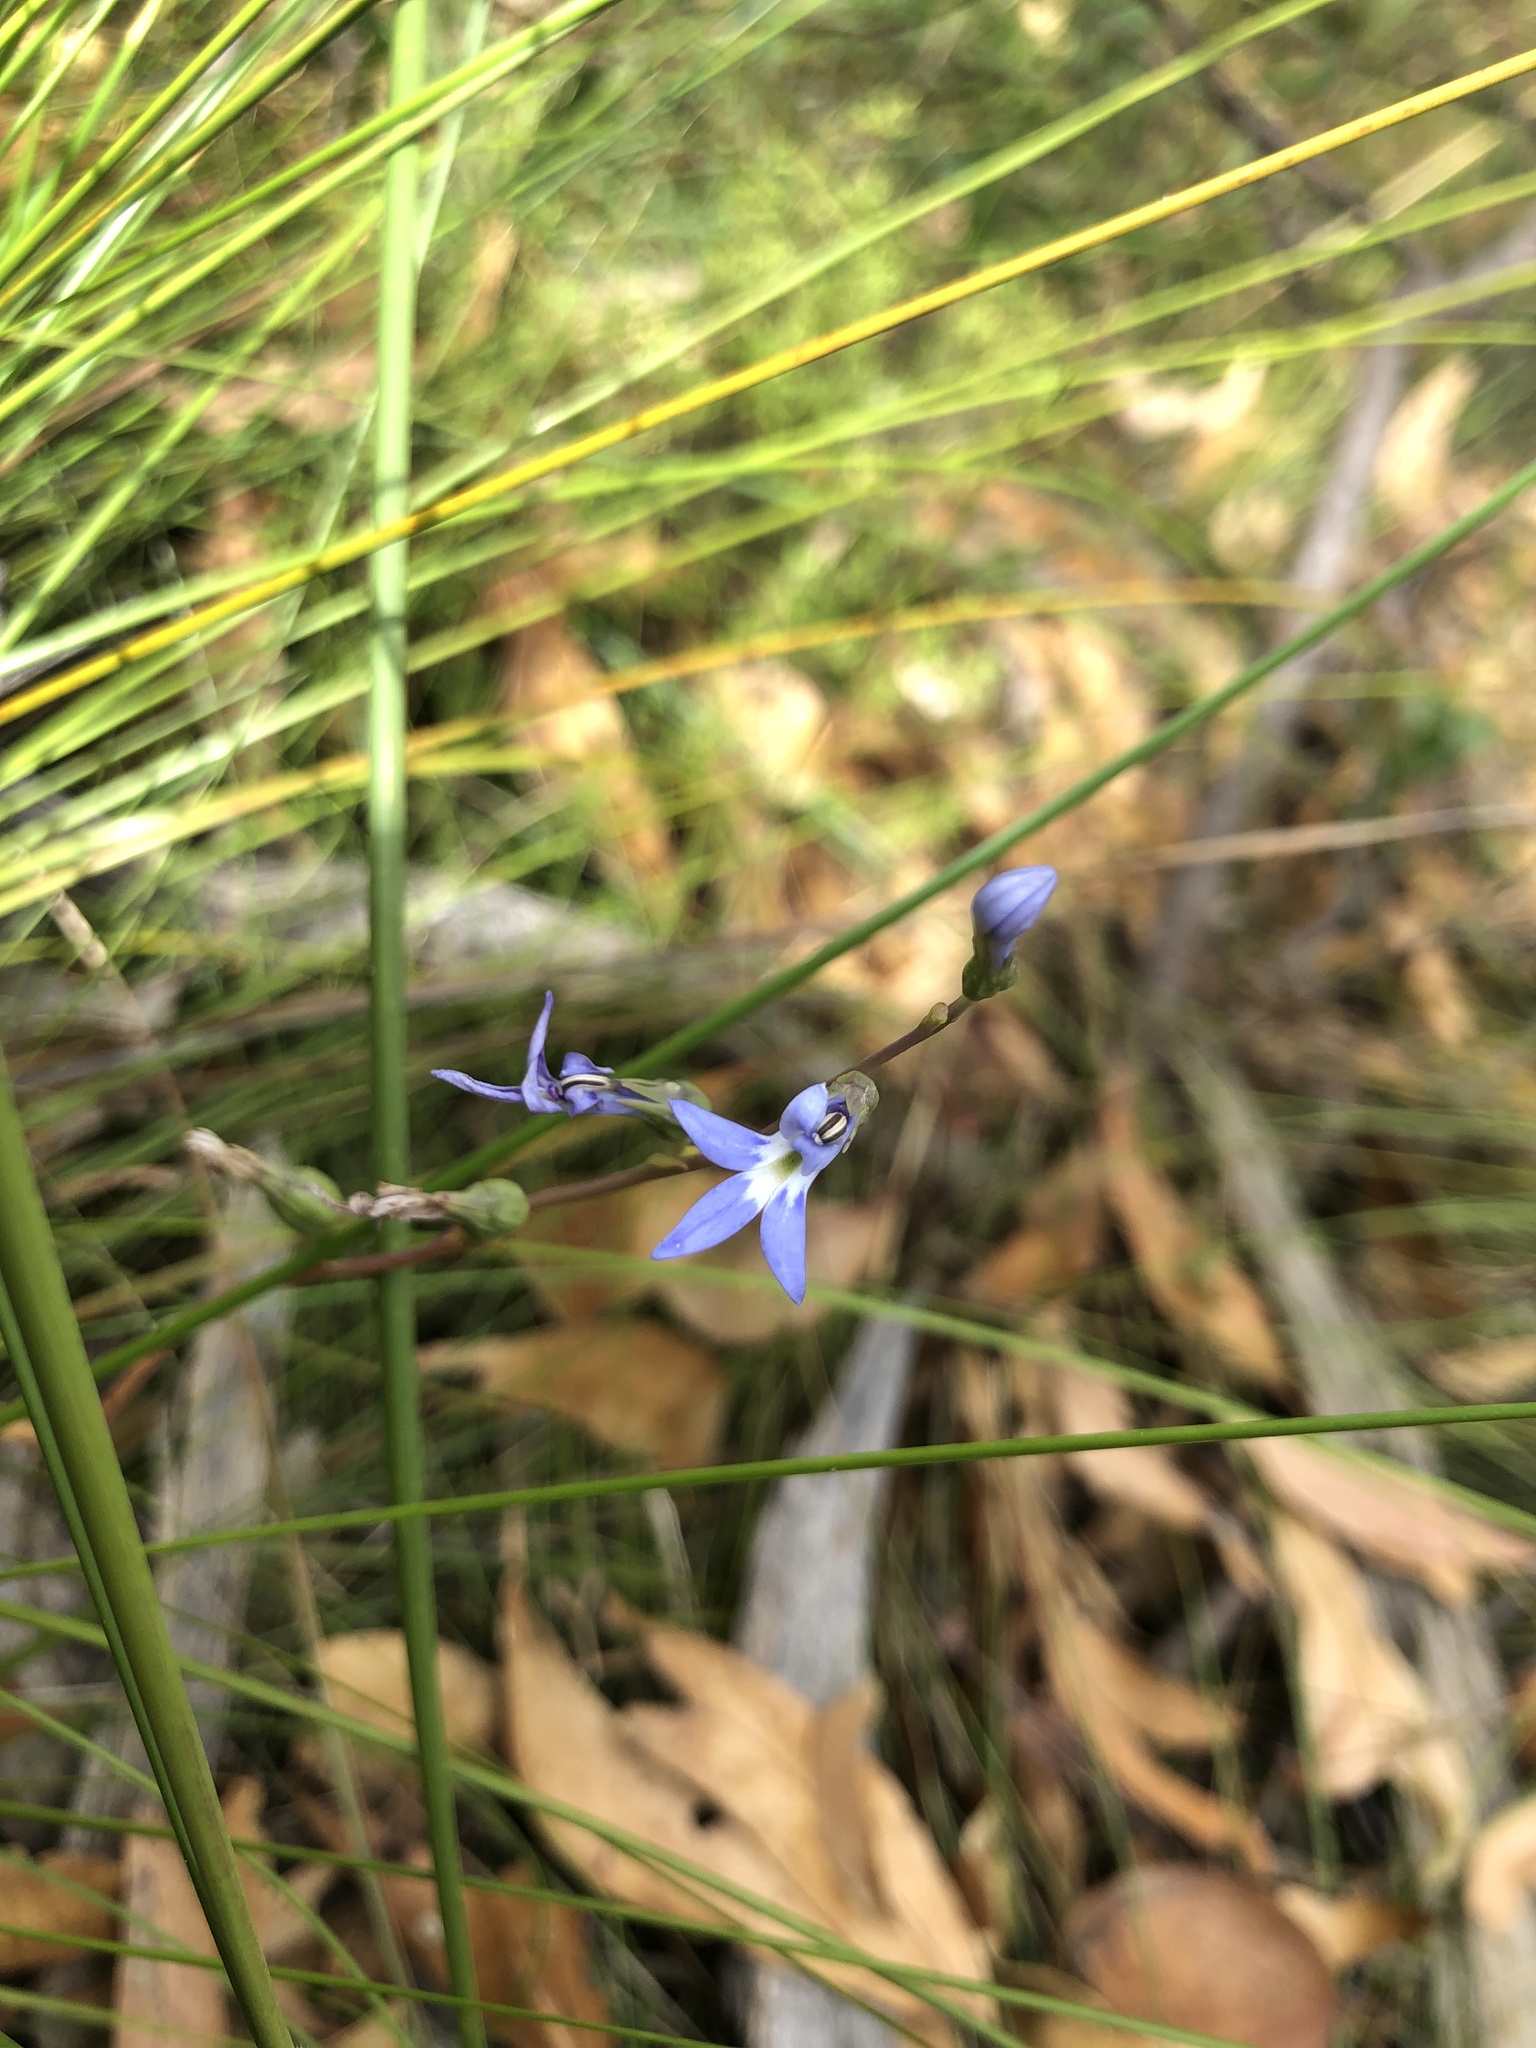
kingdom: Plantae
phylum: Tracheophyta
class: Magnoliopsida
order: Asterales
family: Campanulaceae
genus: Lobelia
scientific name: Lobelia gibbosa
